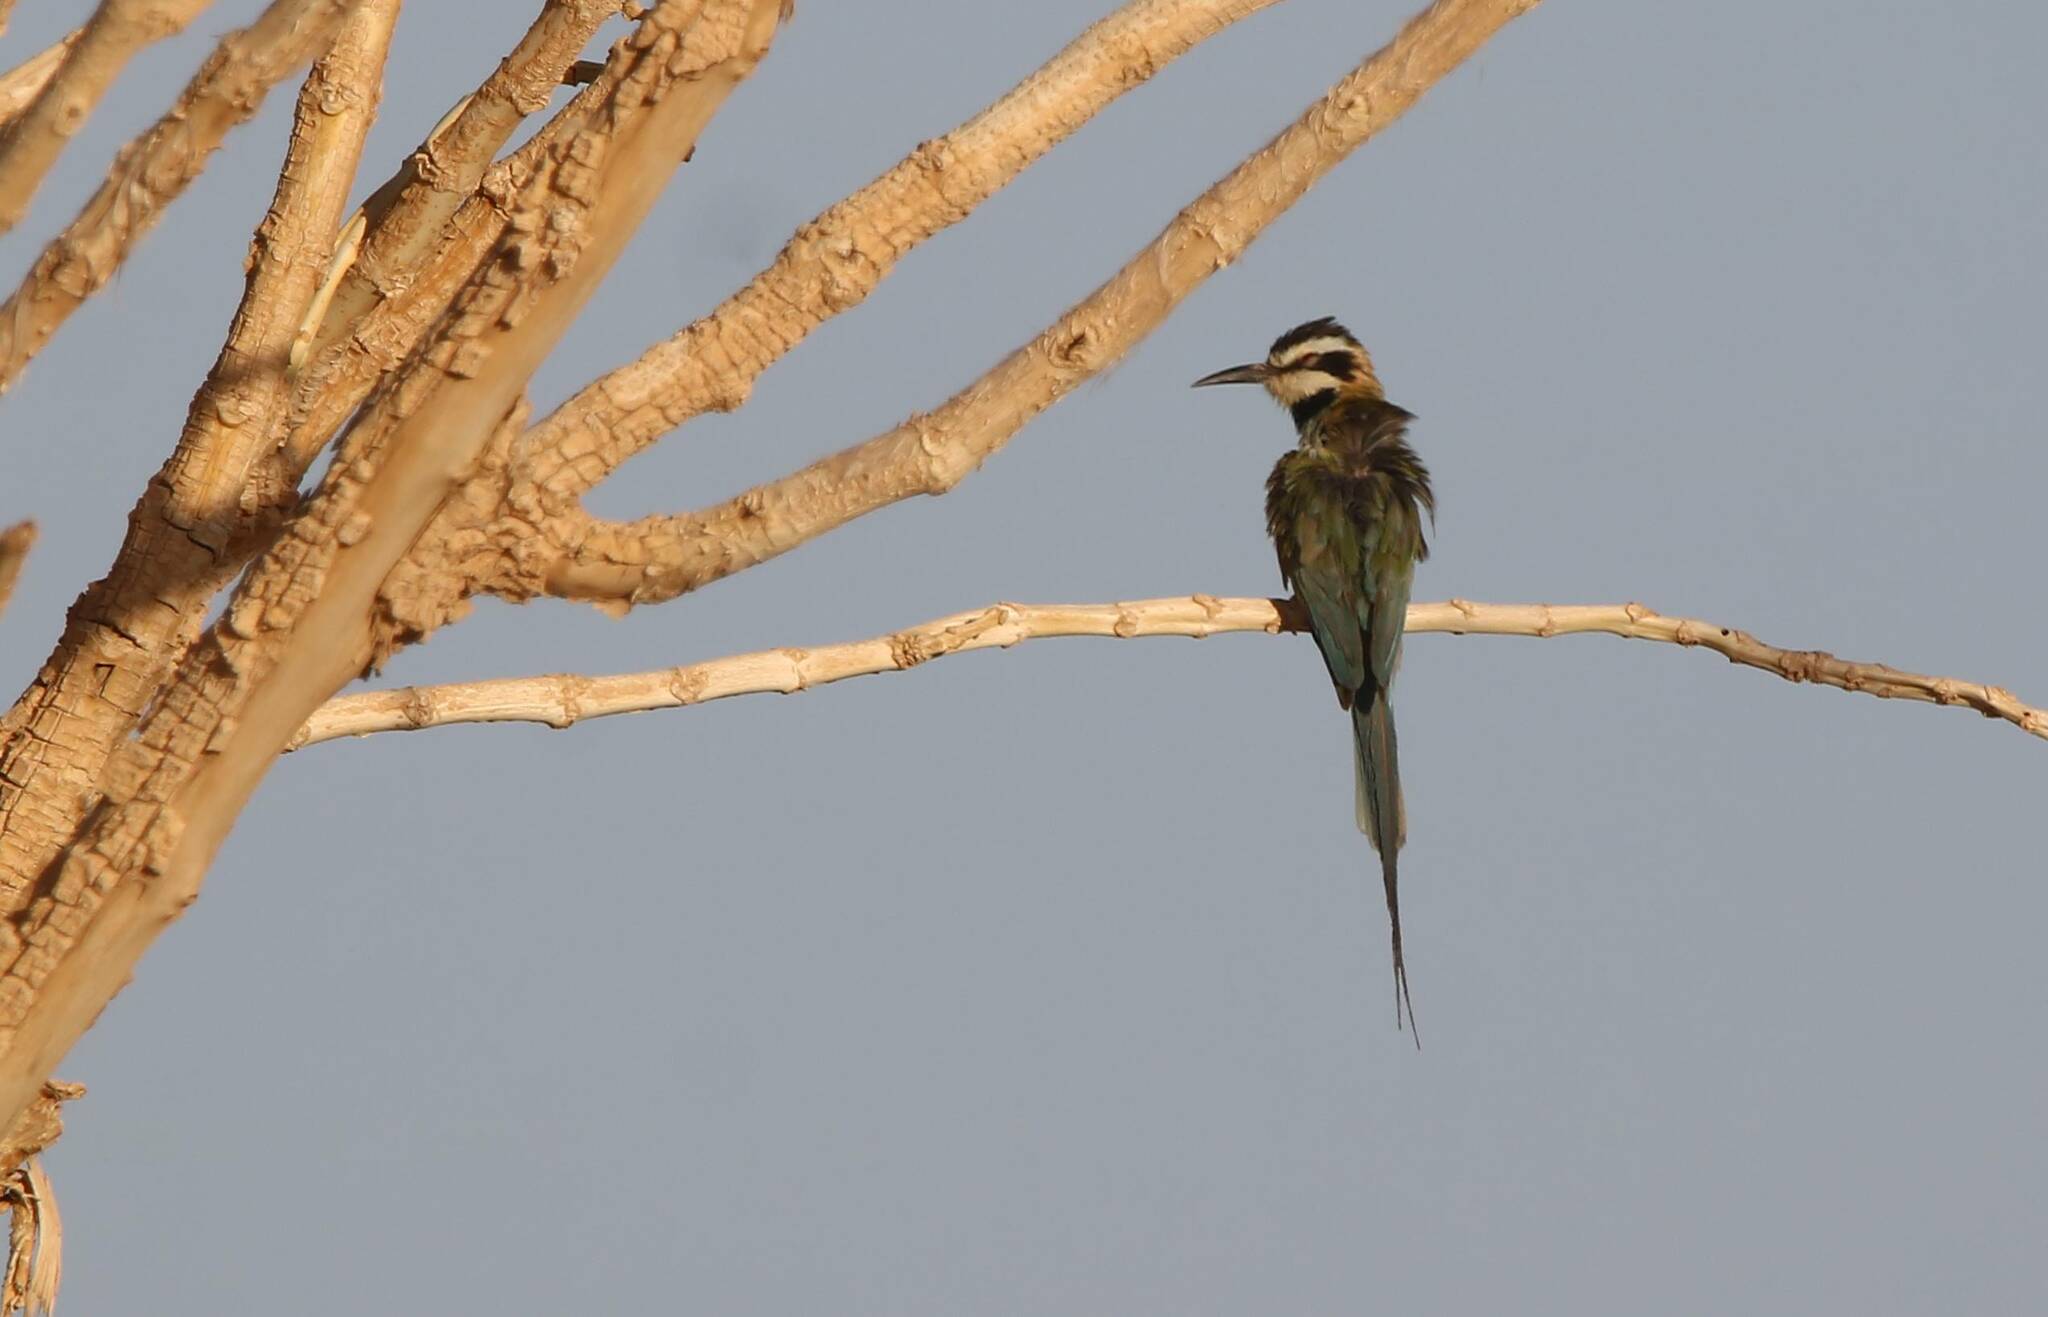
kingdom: Animalia
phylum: Chordata
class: Aves
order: Coraciiformes
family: Meropidae
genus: Merops
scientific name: Merops albicollis
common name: White-throated bee-eater
